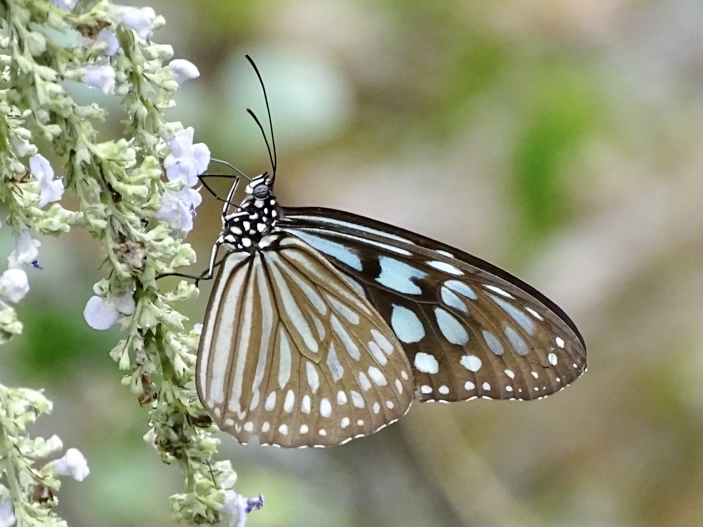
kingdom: Animalia
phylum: Arthropoda
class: Insecta
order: Lepidoptera
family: Nymphalidae
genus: Ideopsis
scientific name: Ideopsis similis
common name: Ceylon blue glassy tiger
